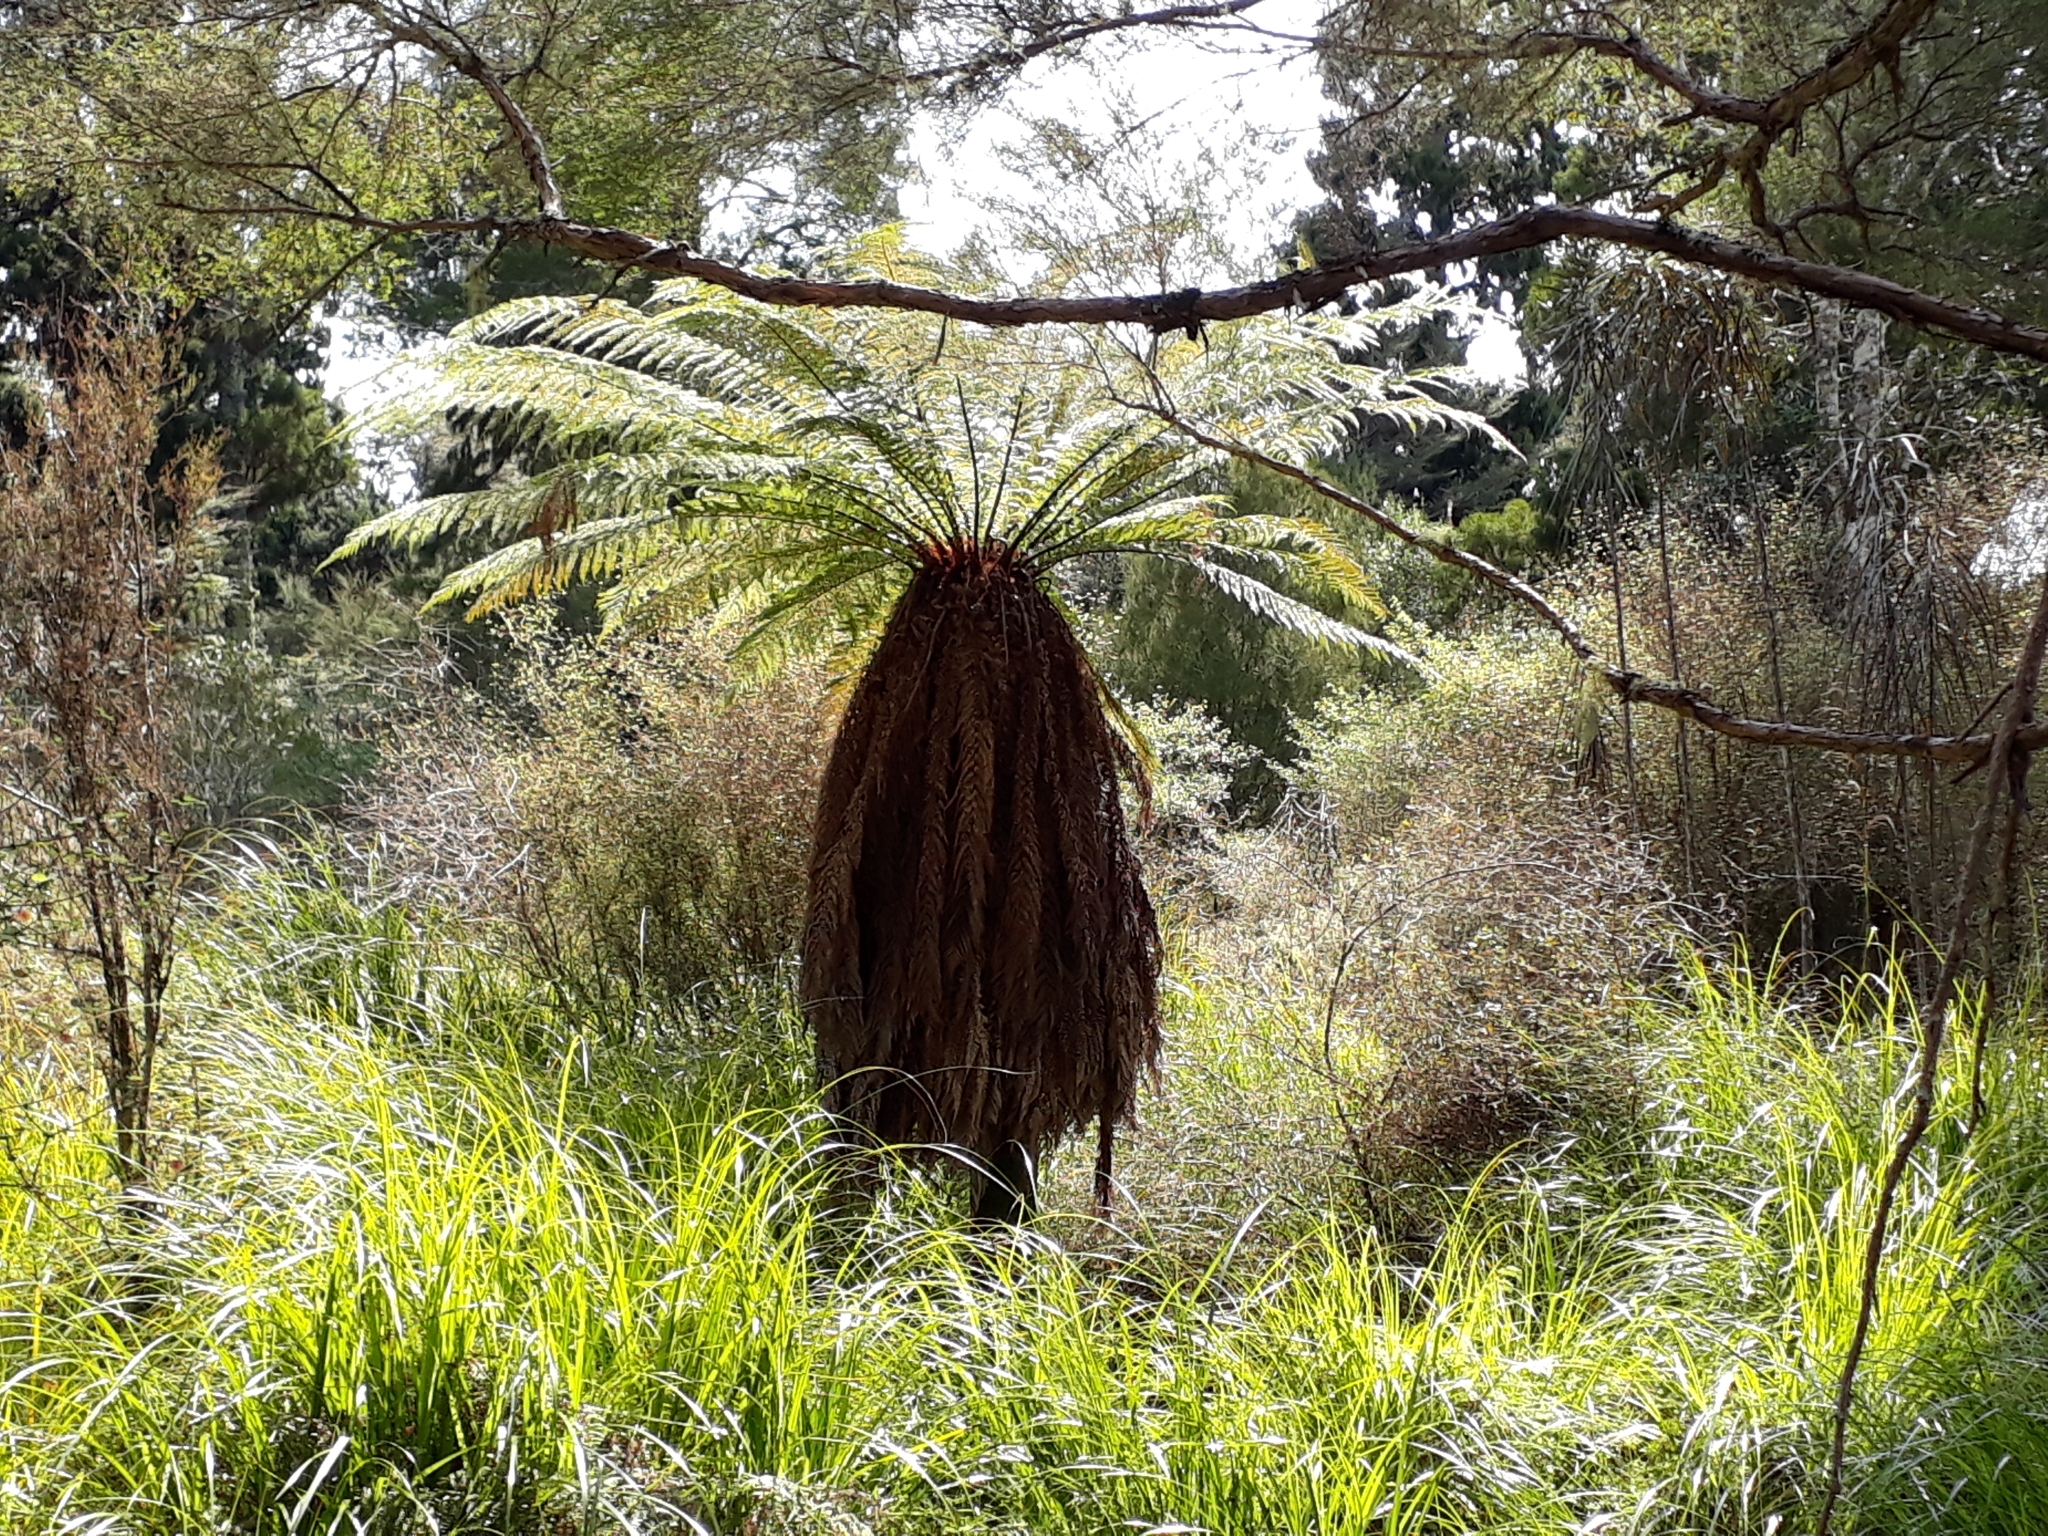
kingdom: Plantae
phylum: Tracheophyta
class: Polypodiopsida
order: Cyatheales
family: Dicksoniaceae
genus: Dicksonia
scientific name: Dicksonia fibrosa
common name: Golden tree fern
